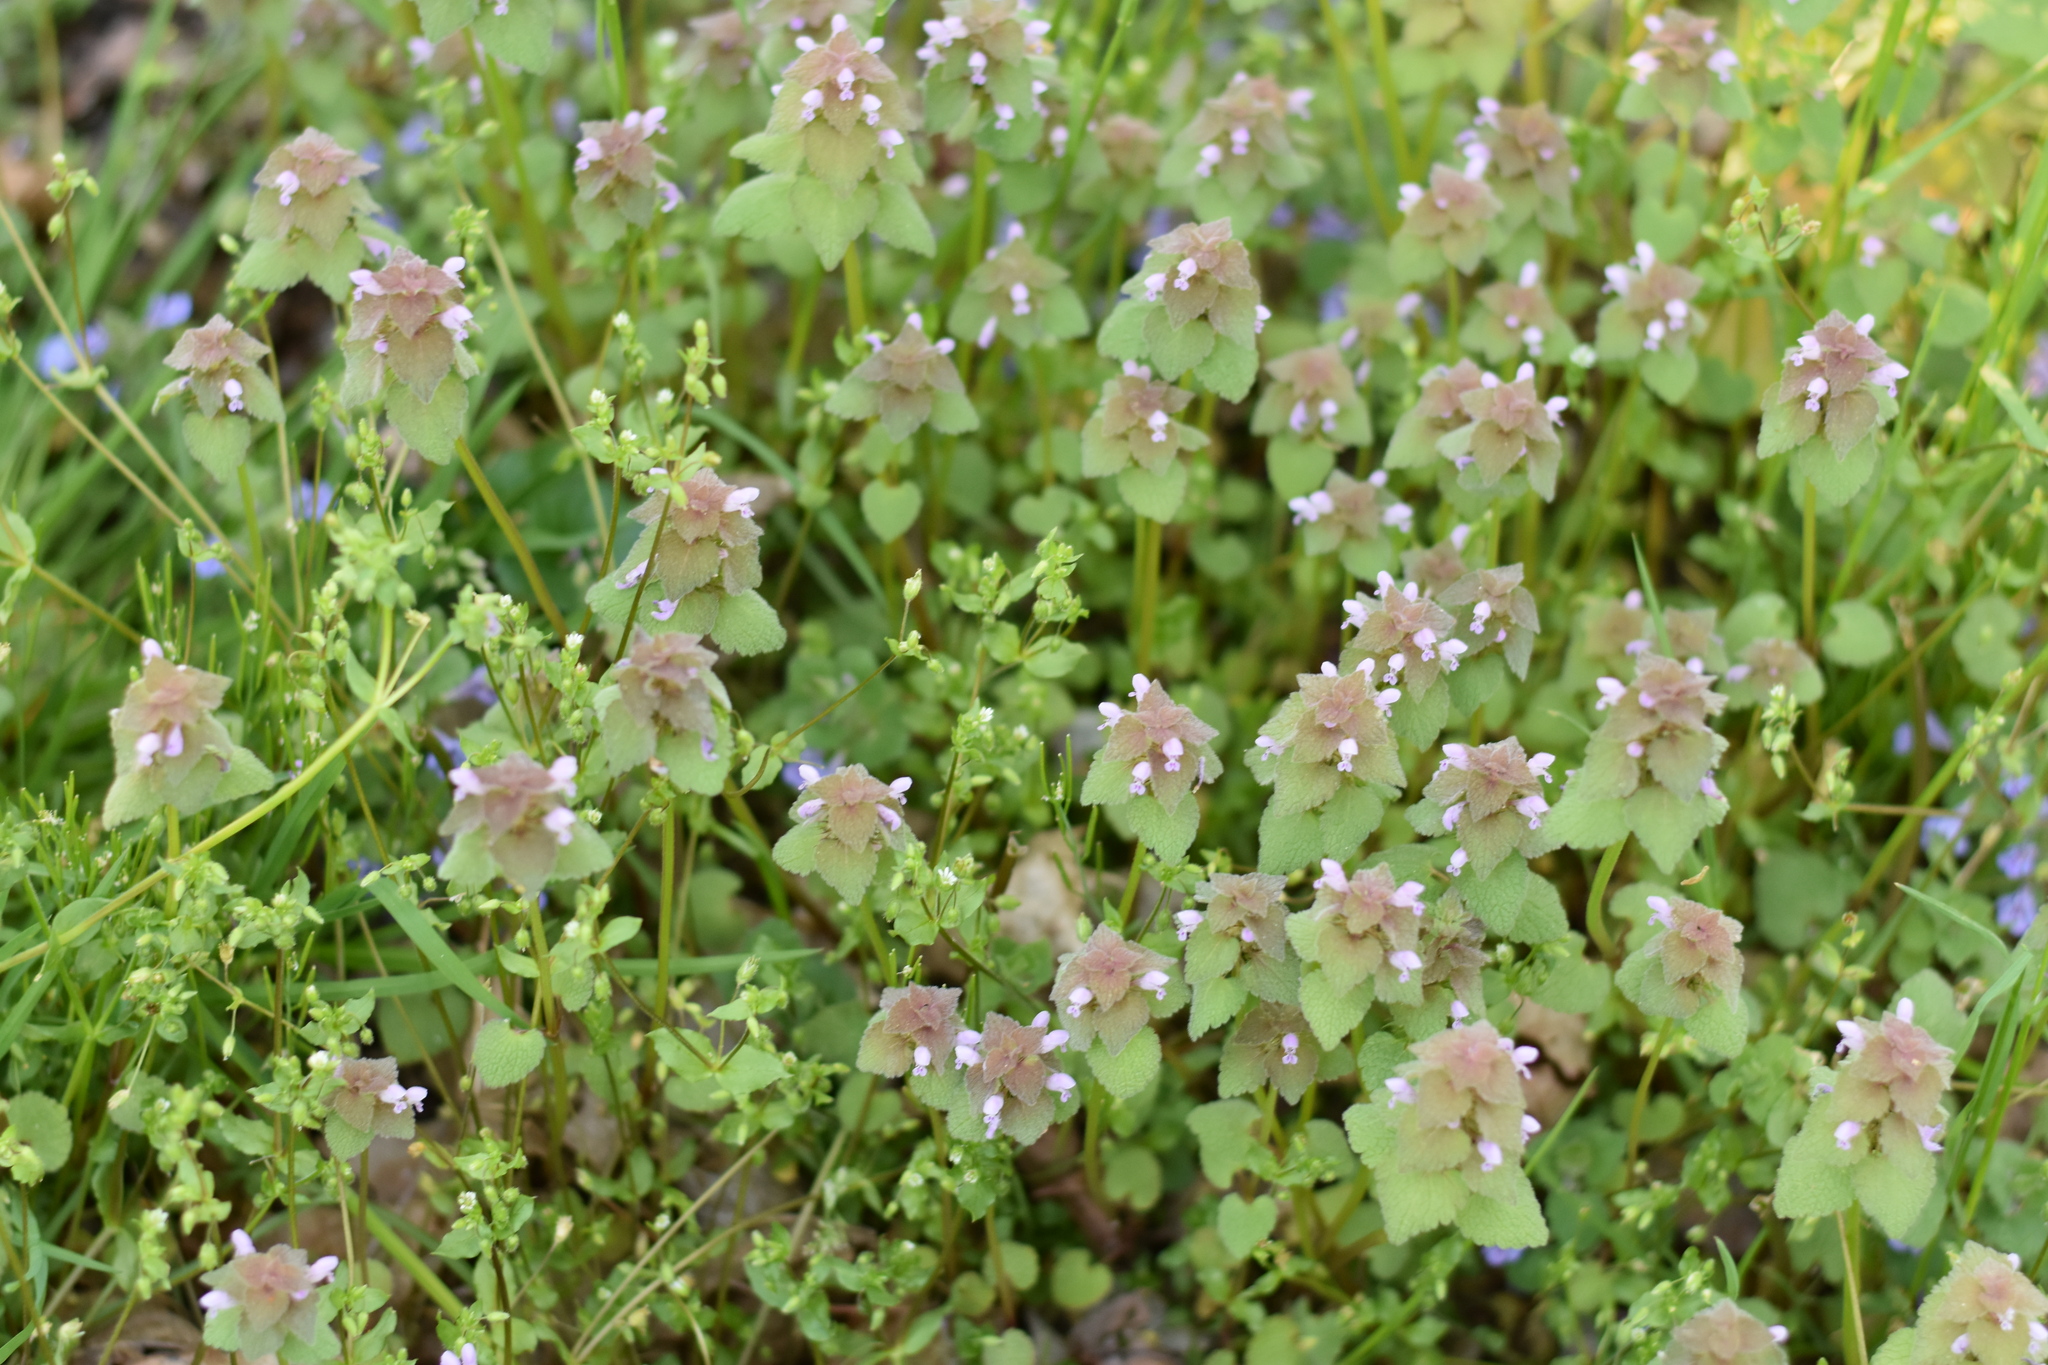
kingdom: Plantae
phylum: Tracheophyta
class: Magnoliopsida
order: Lamiales
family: Lamiaceae
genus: Lamium
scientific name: Lamium purpureum
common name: Red dead-nettle
